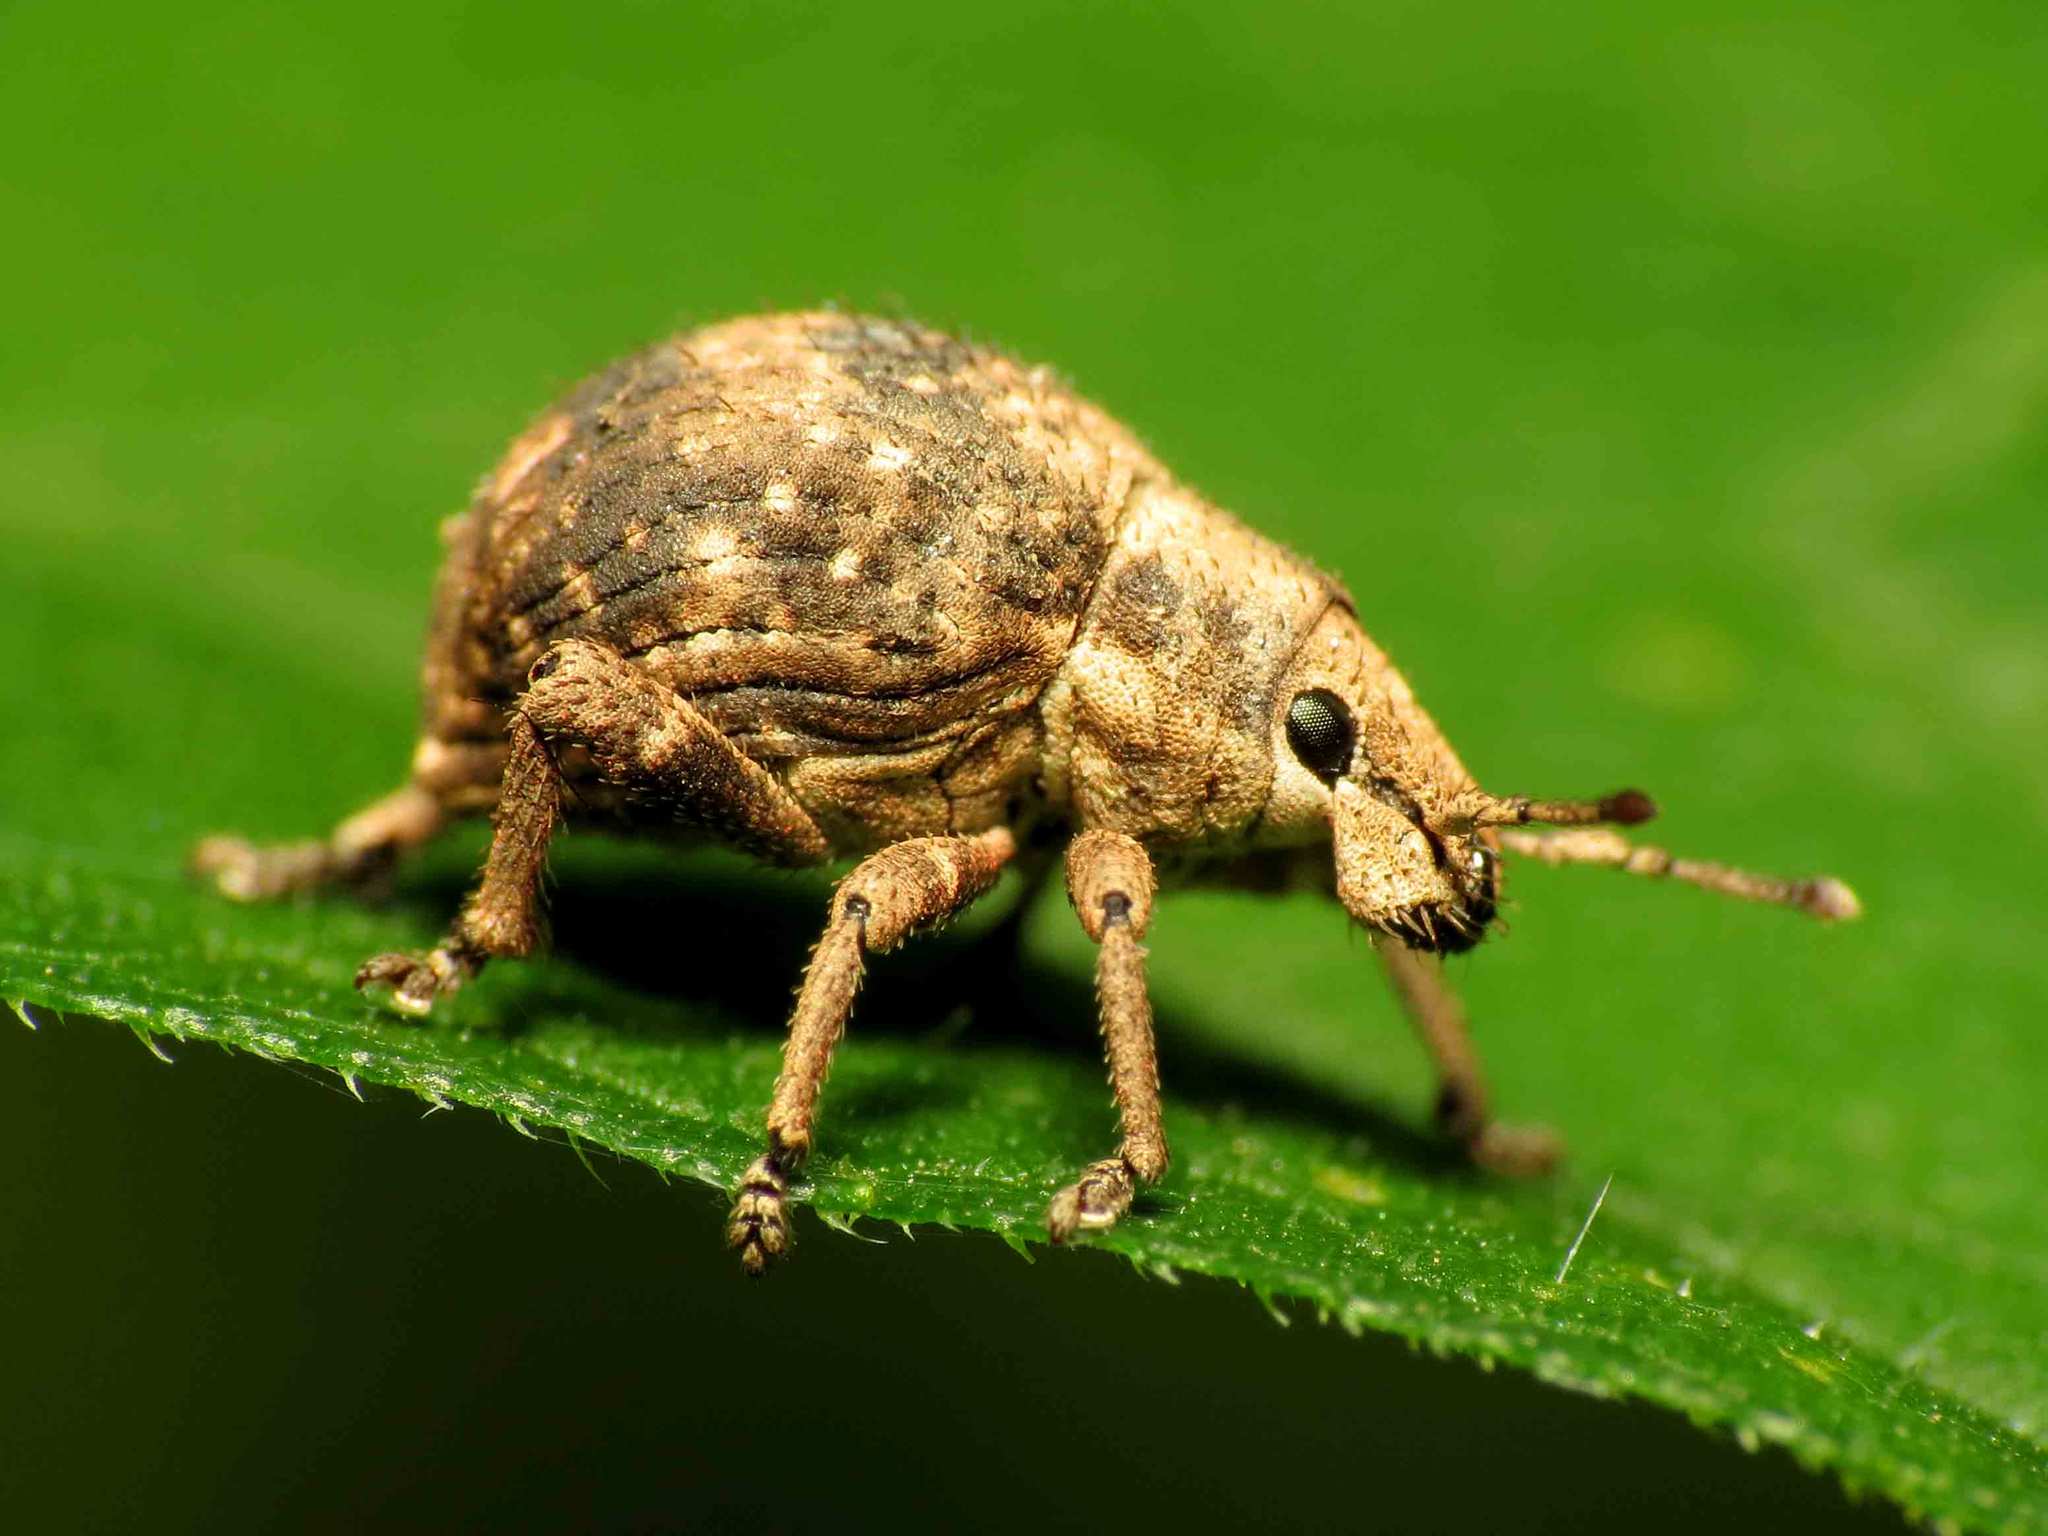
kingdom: Animalia
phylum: Arthropoda
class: Insecta
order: Coleoptera
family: Curculionidae
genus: Pseudocneorhinus
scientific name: Pseudocneorhinus bifasciatus
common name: Two-banded japanese weevil
